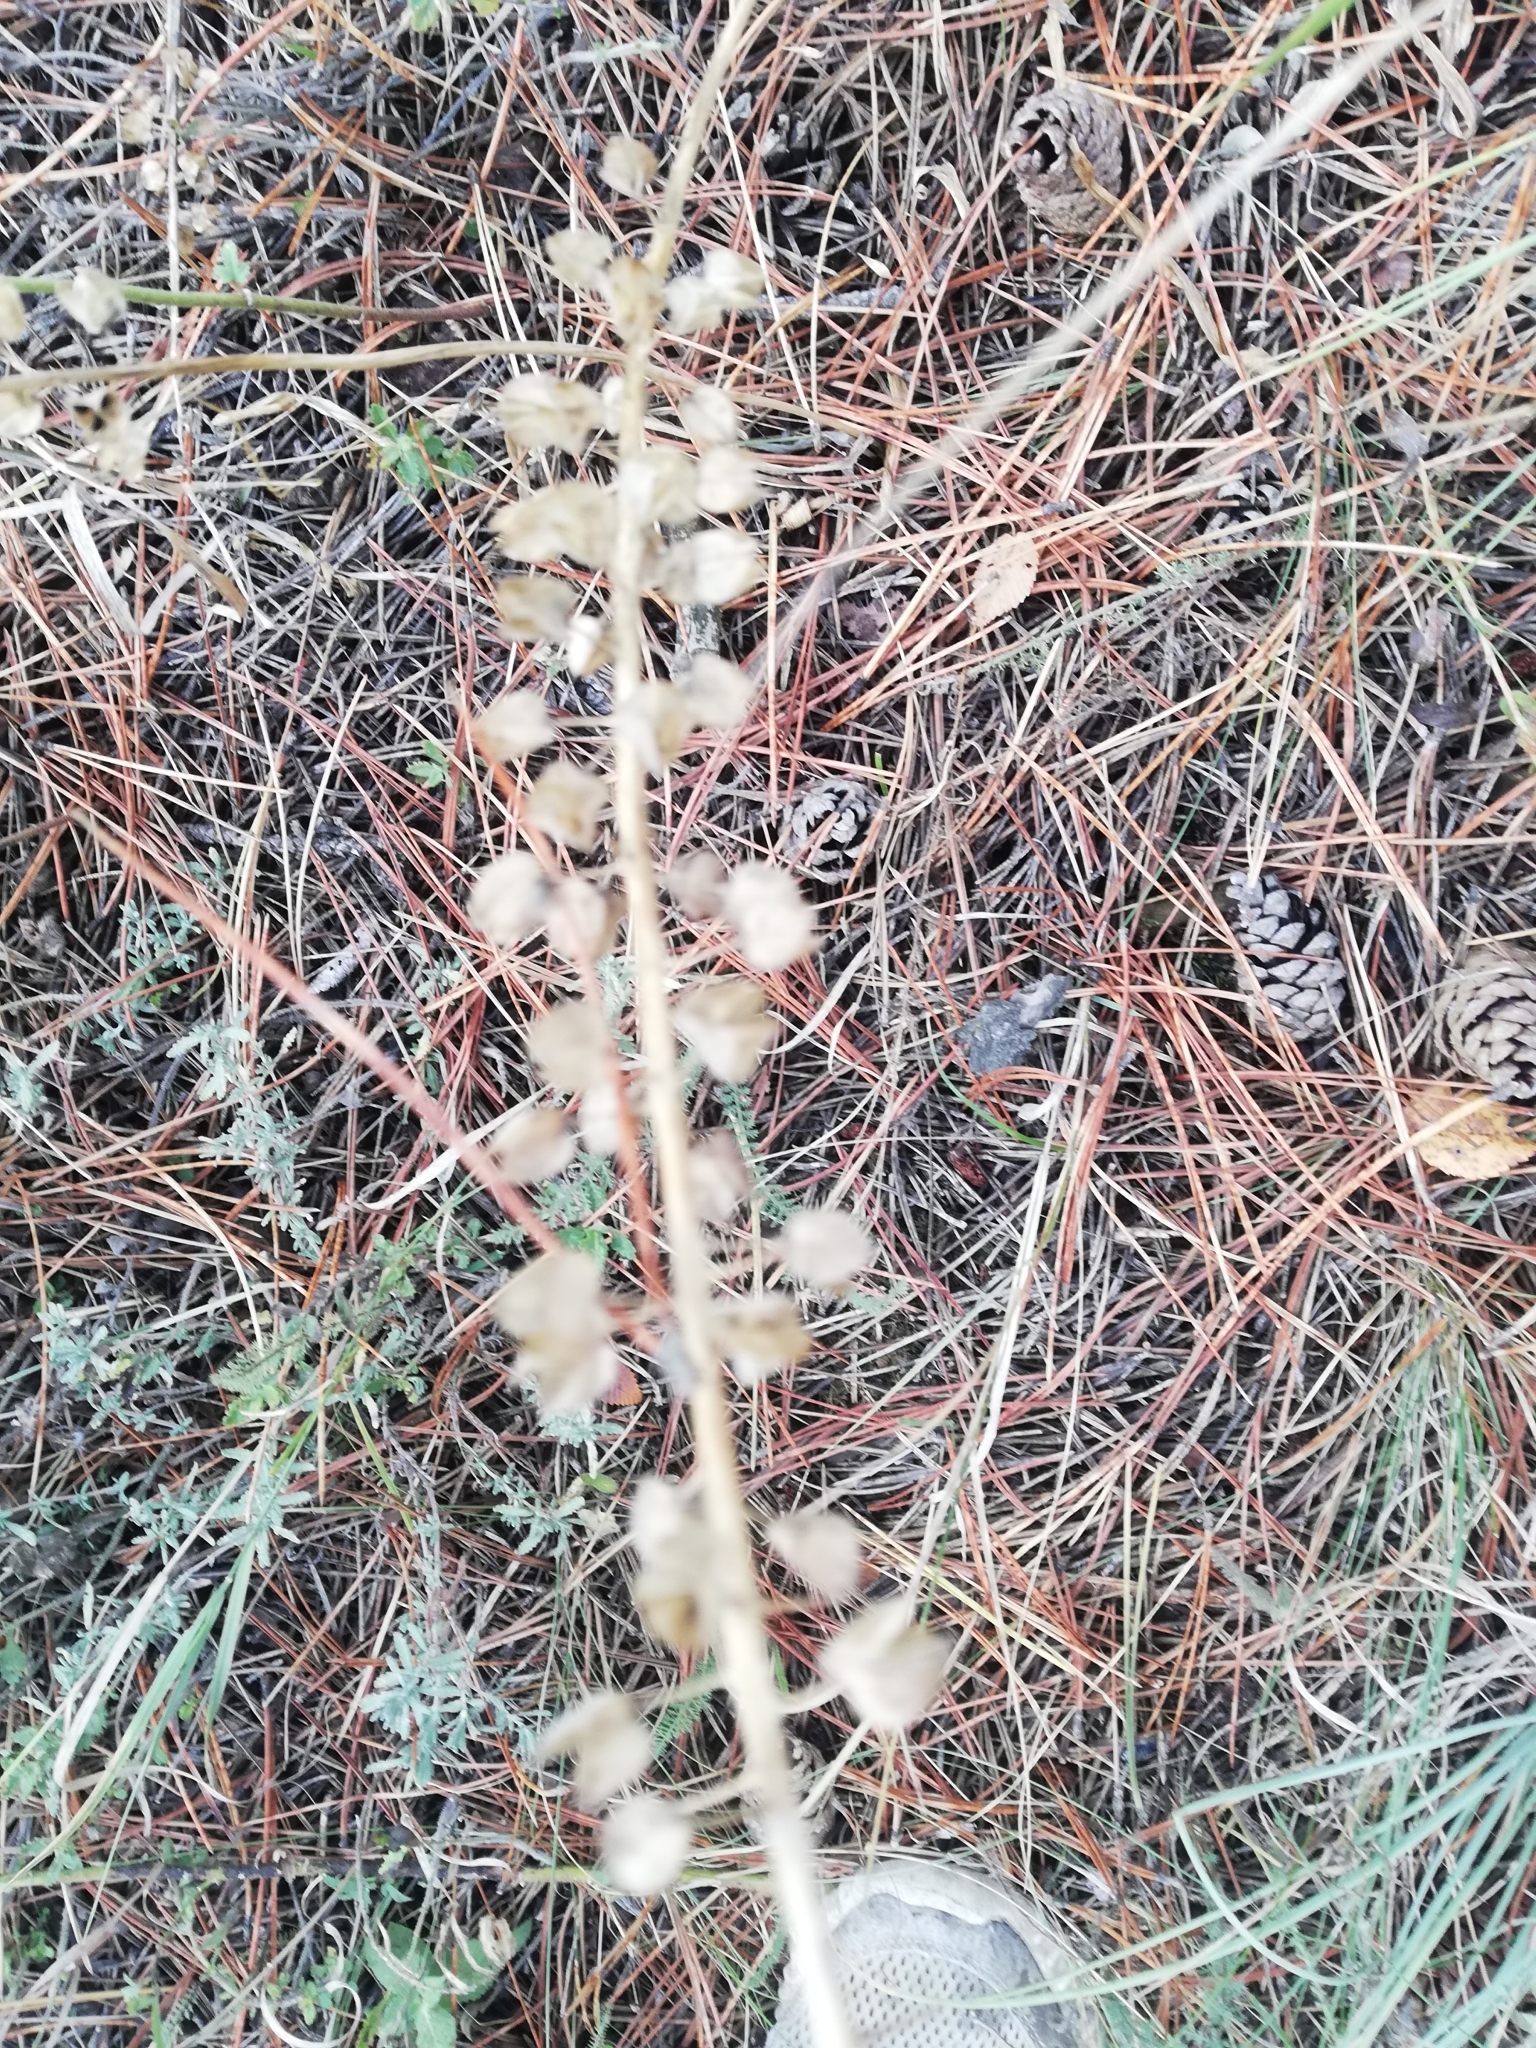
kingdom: Plantae
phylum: Tracheophyta
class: Magnoliopsida
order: Lamiales
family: Lamiaceae
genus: Marrubium
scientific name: Marrubium peregrinum
